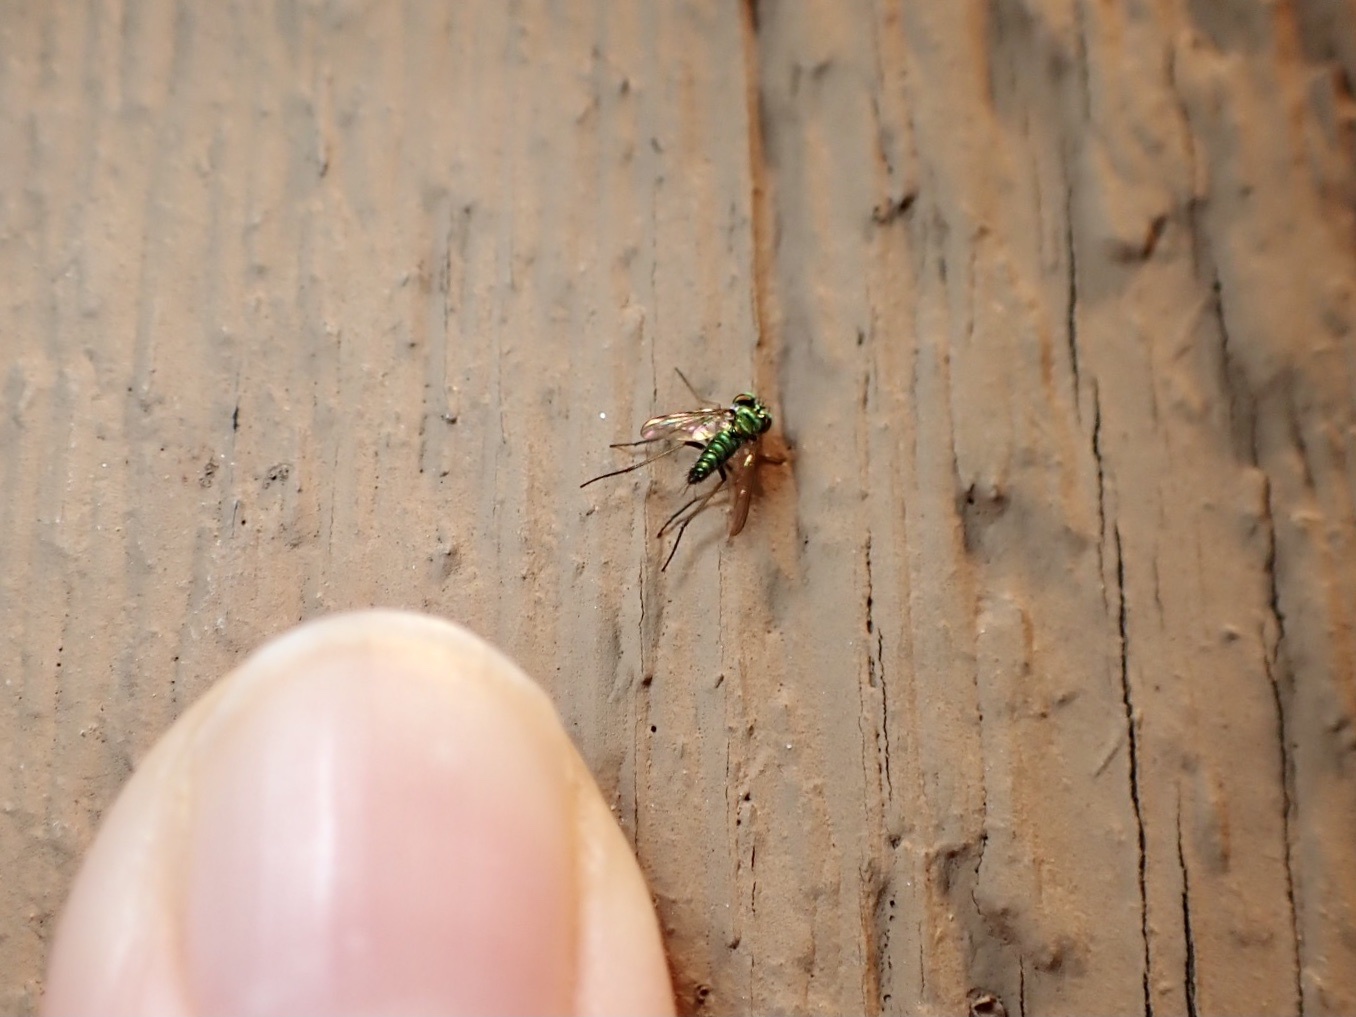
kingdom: Animalia
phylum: Arthropoda
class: Insecta
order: Diptera
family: Dolichopodidae
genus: Condylostylus
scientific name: Condylostylus caudatus
